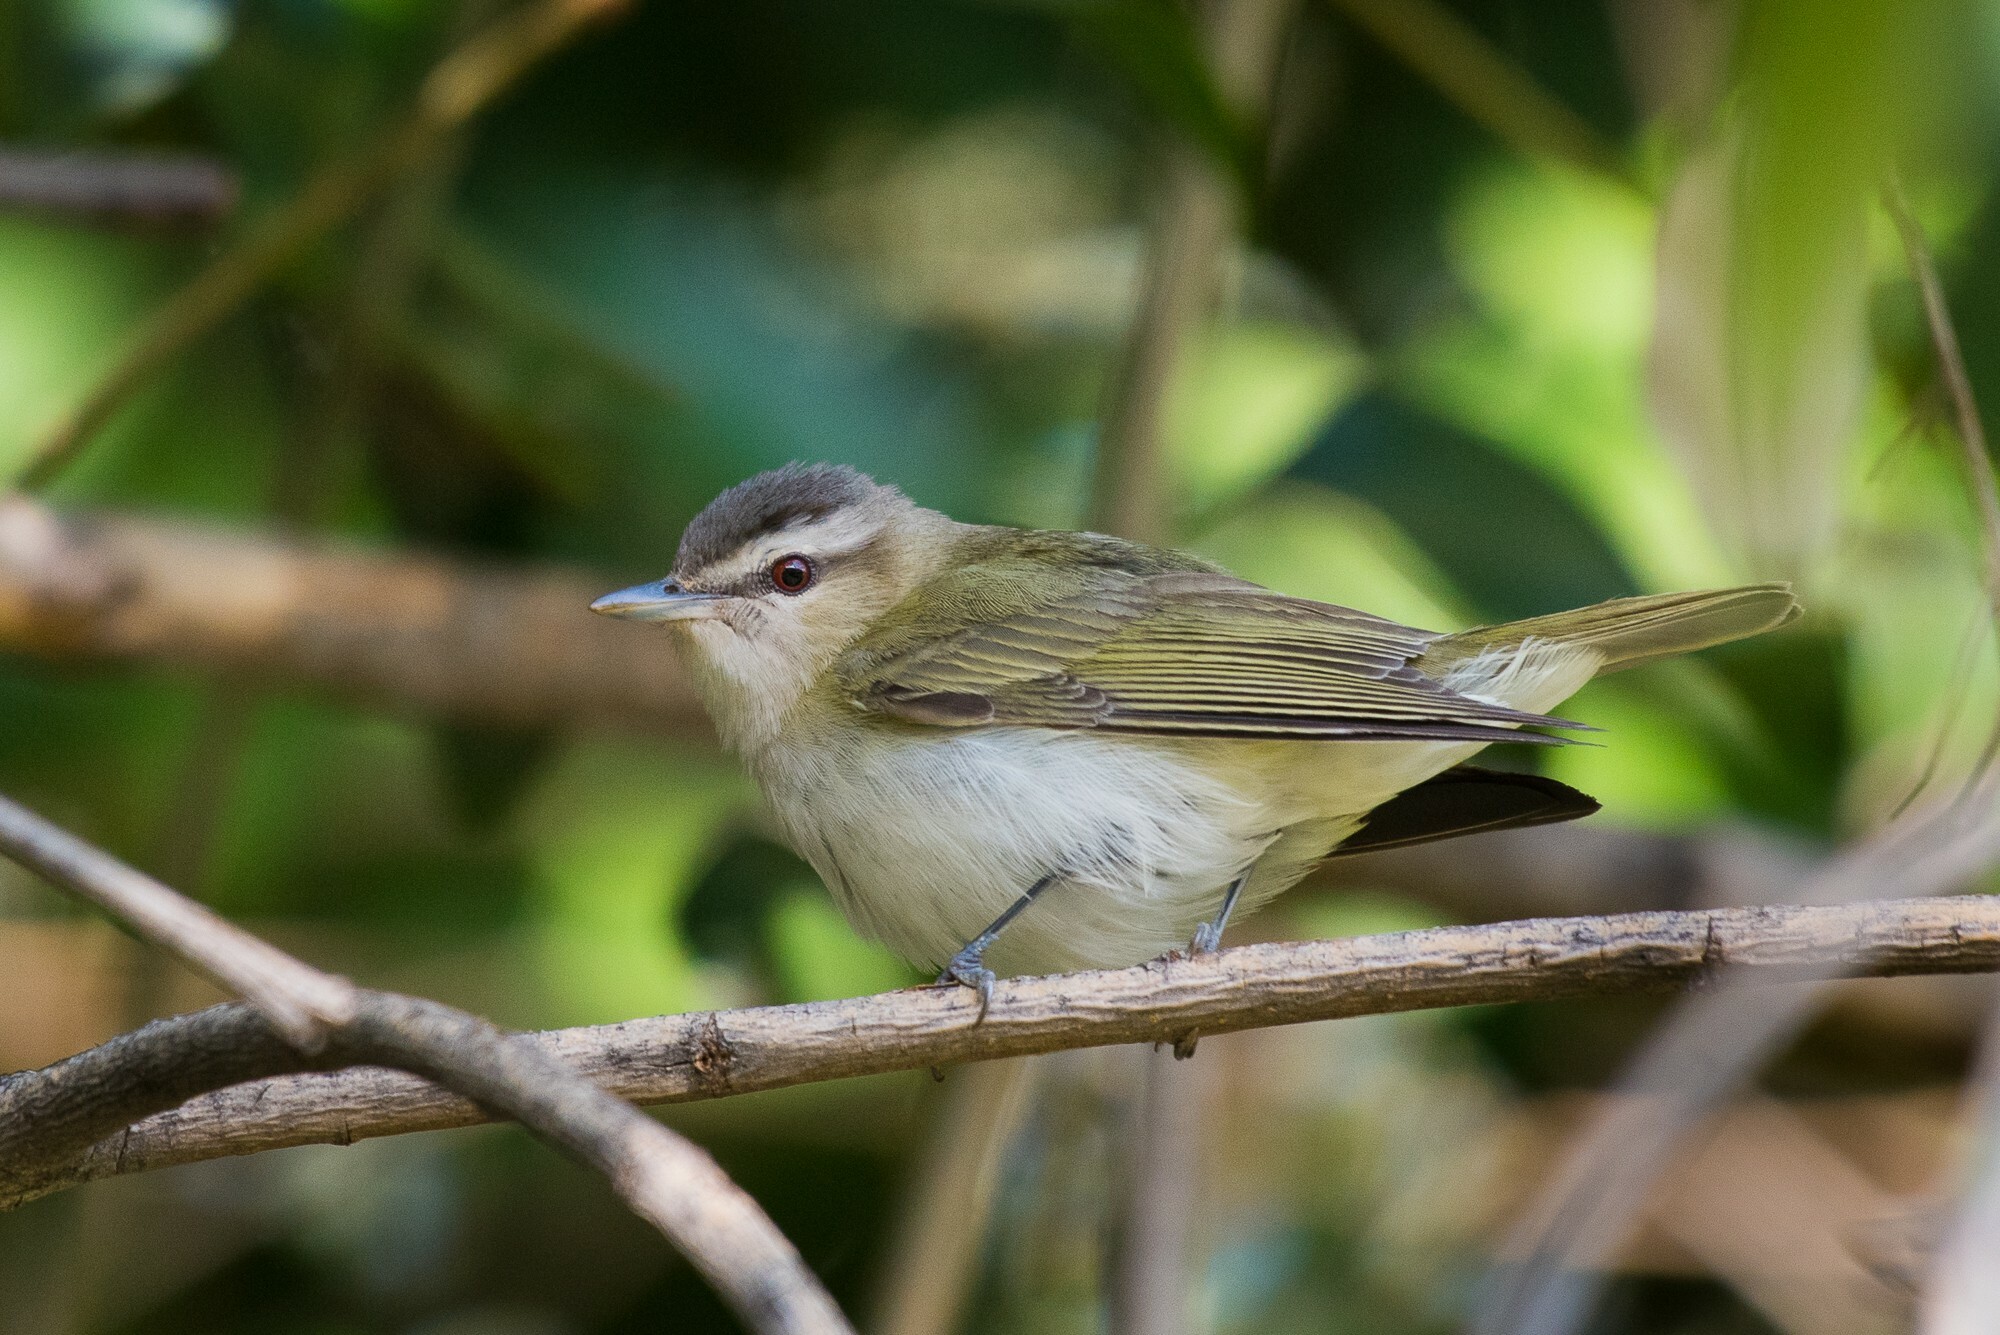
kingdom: Animalia
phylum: Chordata
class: Aves
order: Passeriformes
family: Vireonidae
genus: Vireo
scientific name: Vireo olivaceus
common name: Red-eyed vireo
